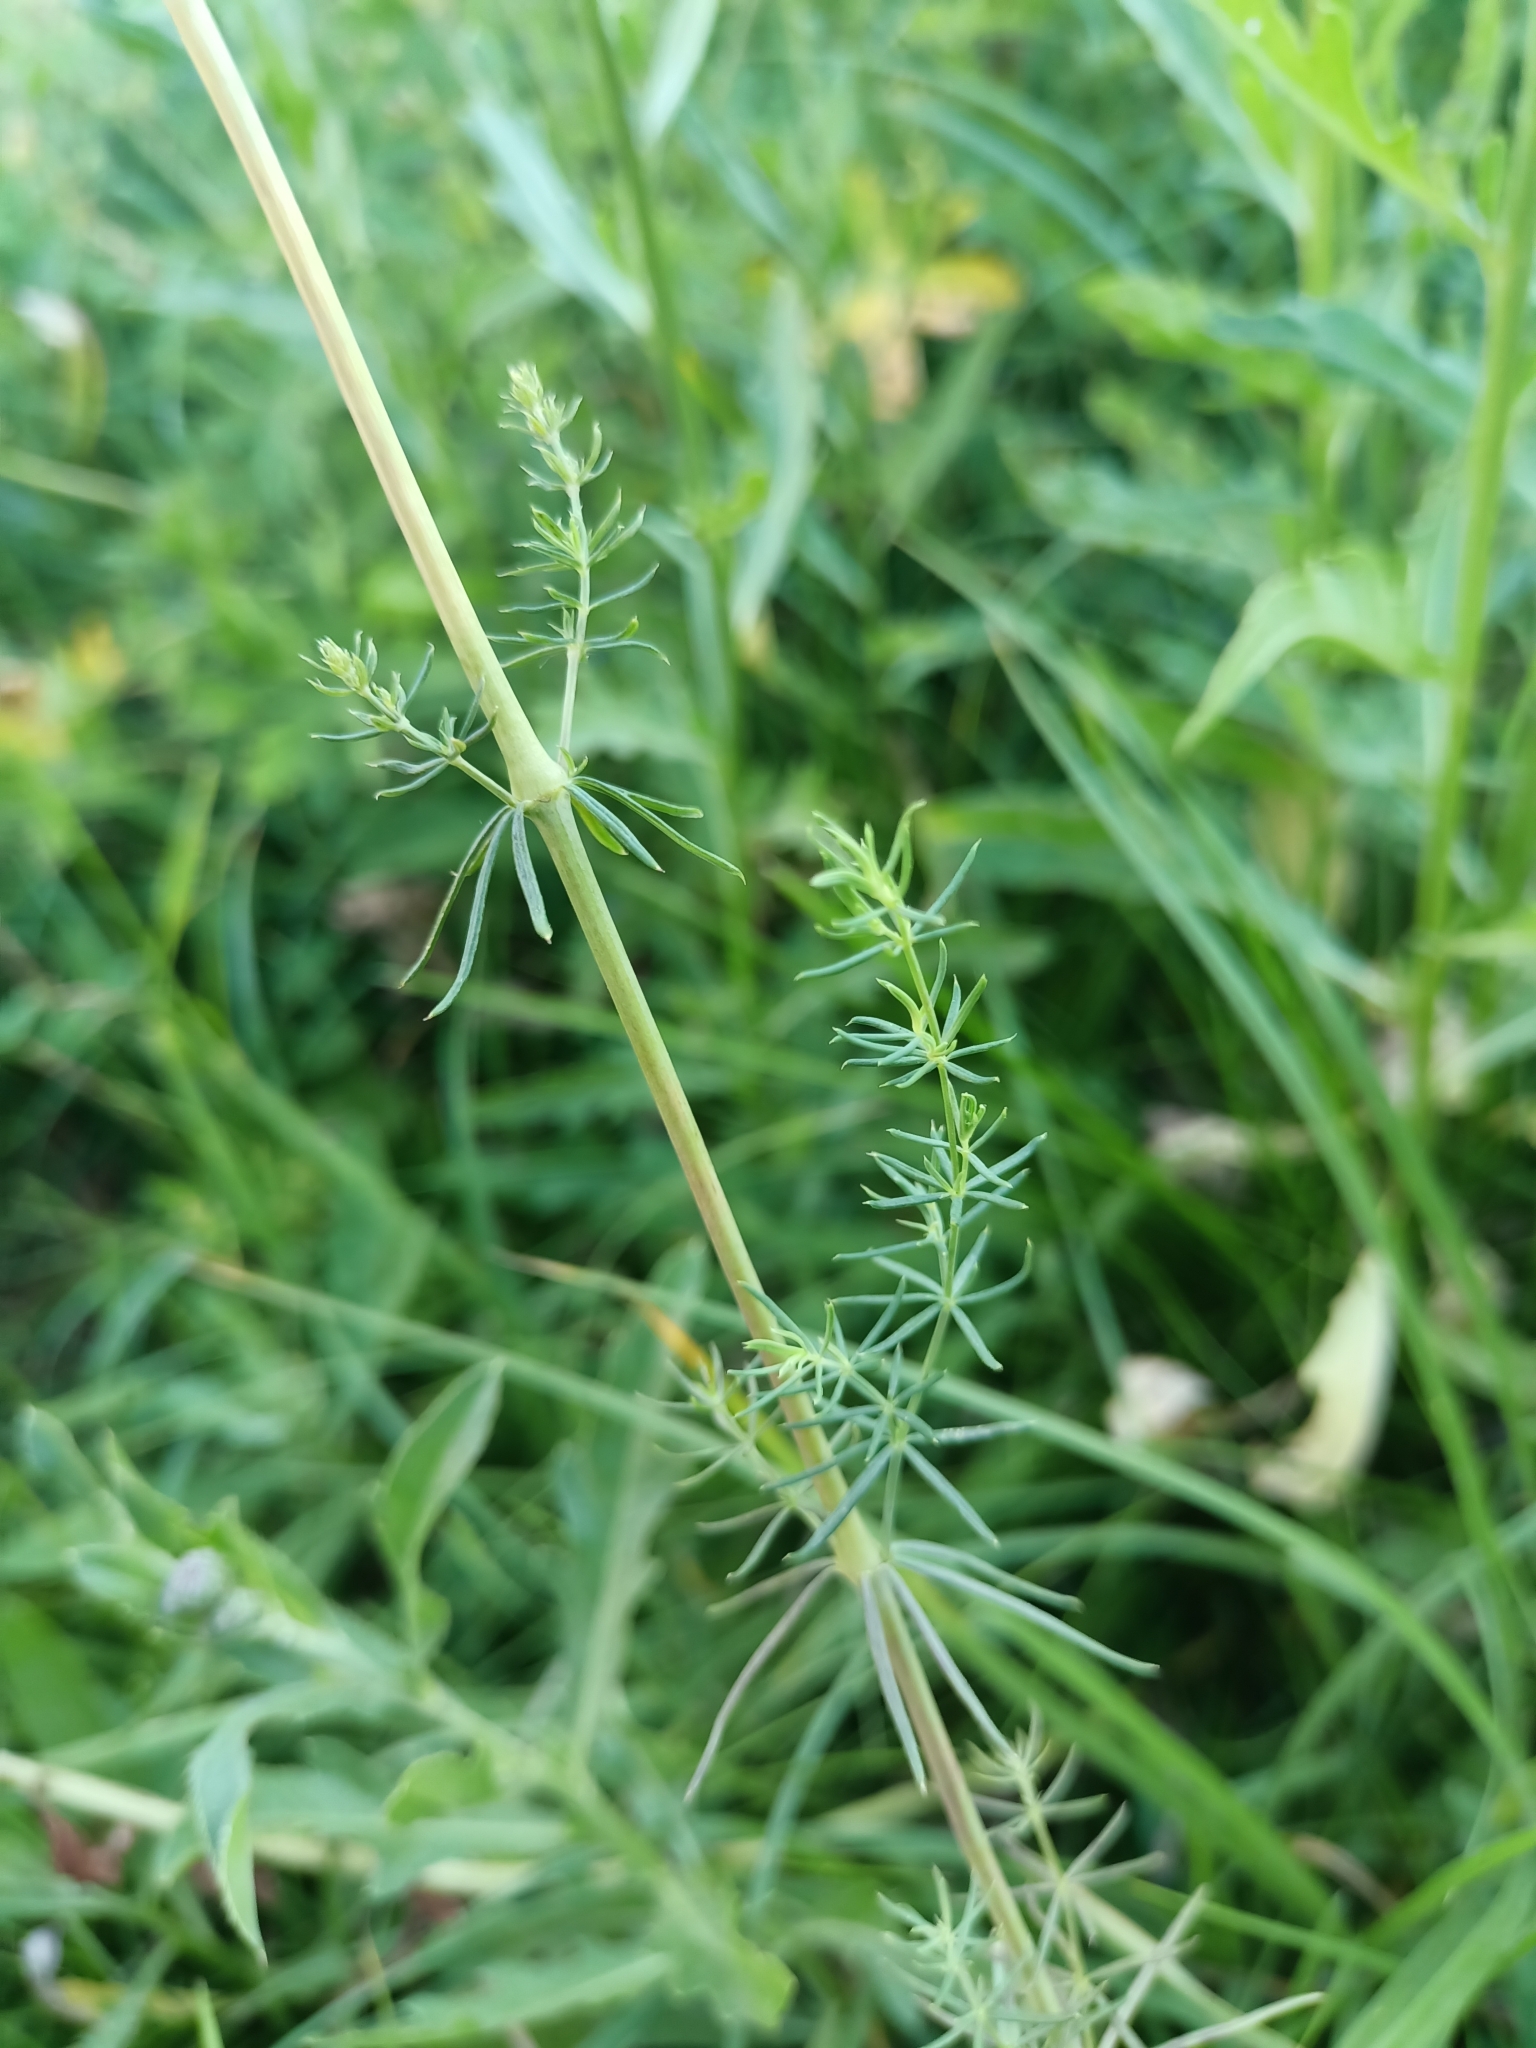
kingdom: Plantae
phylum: Tracheophyta
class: Magnoliopsida
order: Gentianales
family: Rubiaceae
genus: Galium
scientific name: Galium verum
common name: Lady's bedstraw
